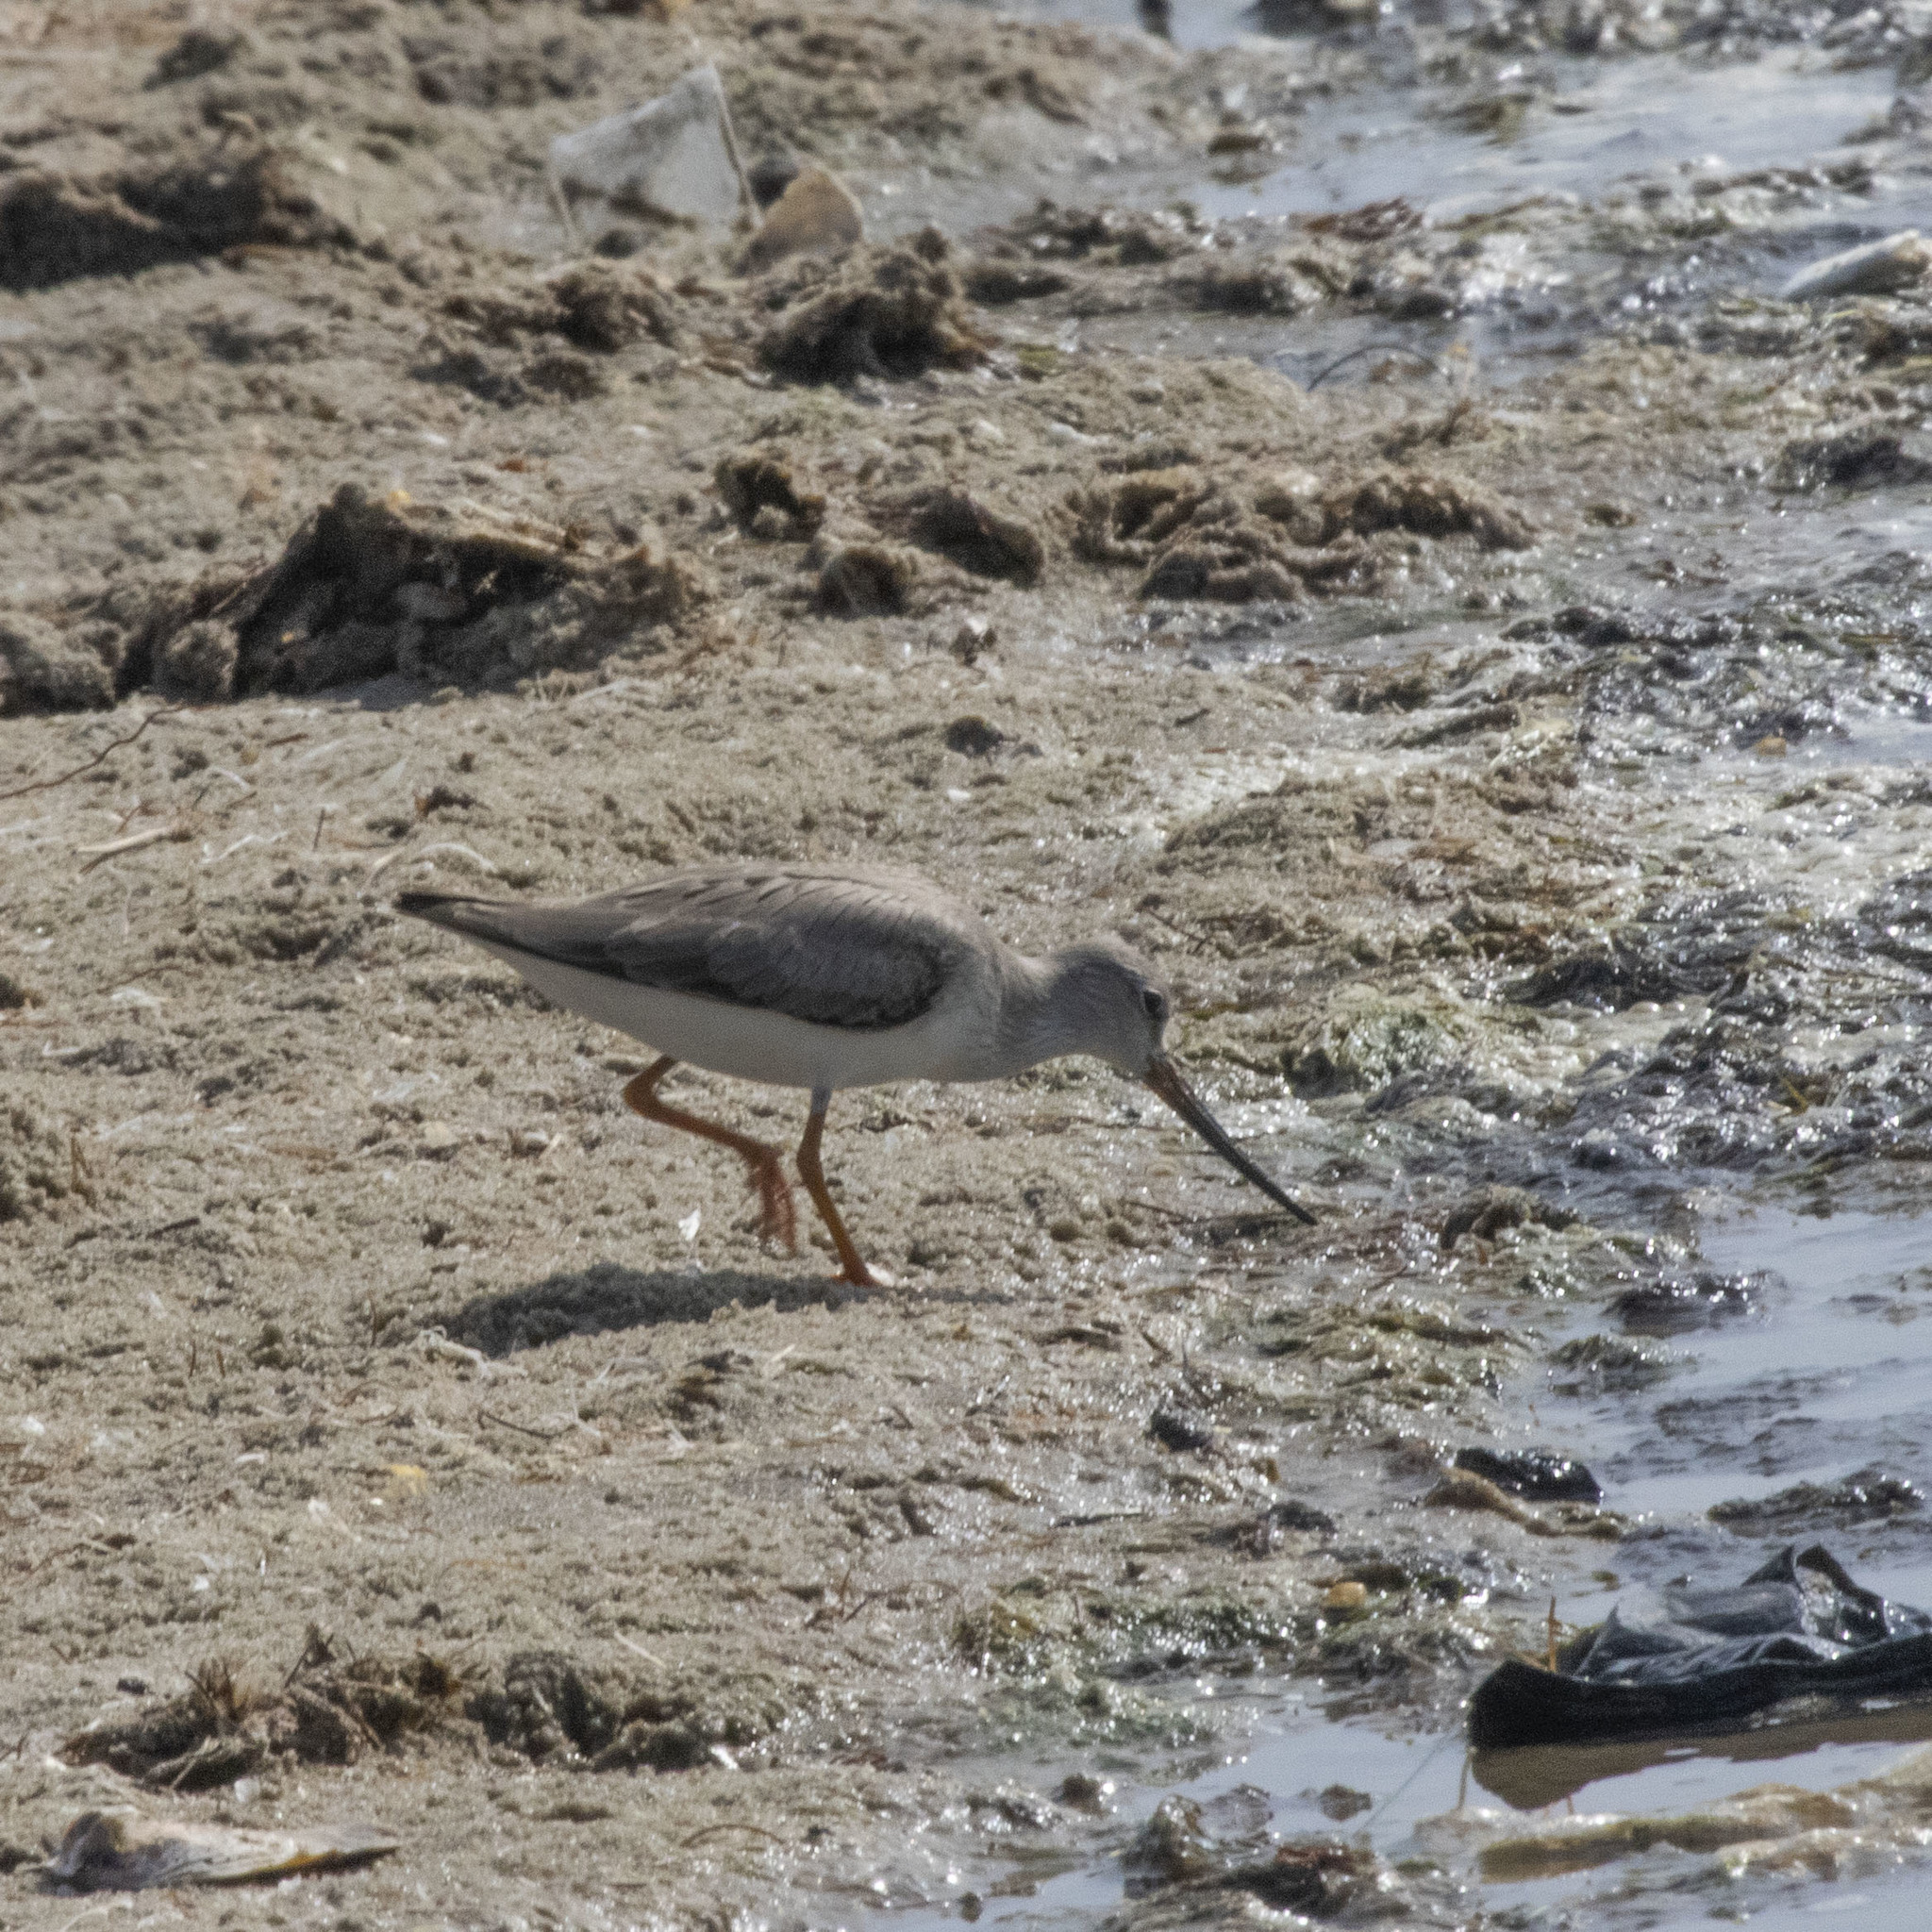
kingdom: Animalia
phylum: Chordata
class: Aves
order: Charadriiformes
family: Scolopacidae
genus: Xenus
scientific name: Xenus cinereus
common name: Terek sandpiper
